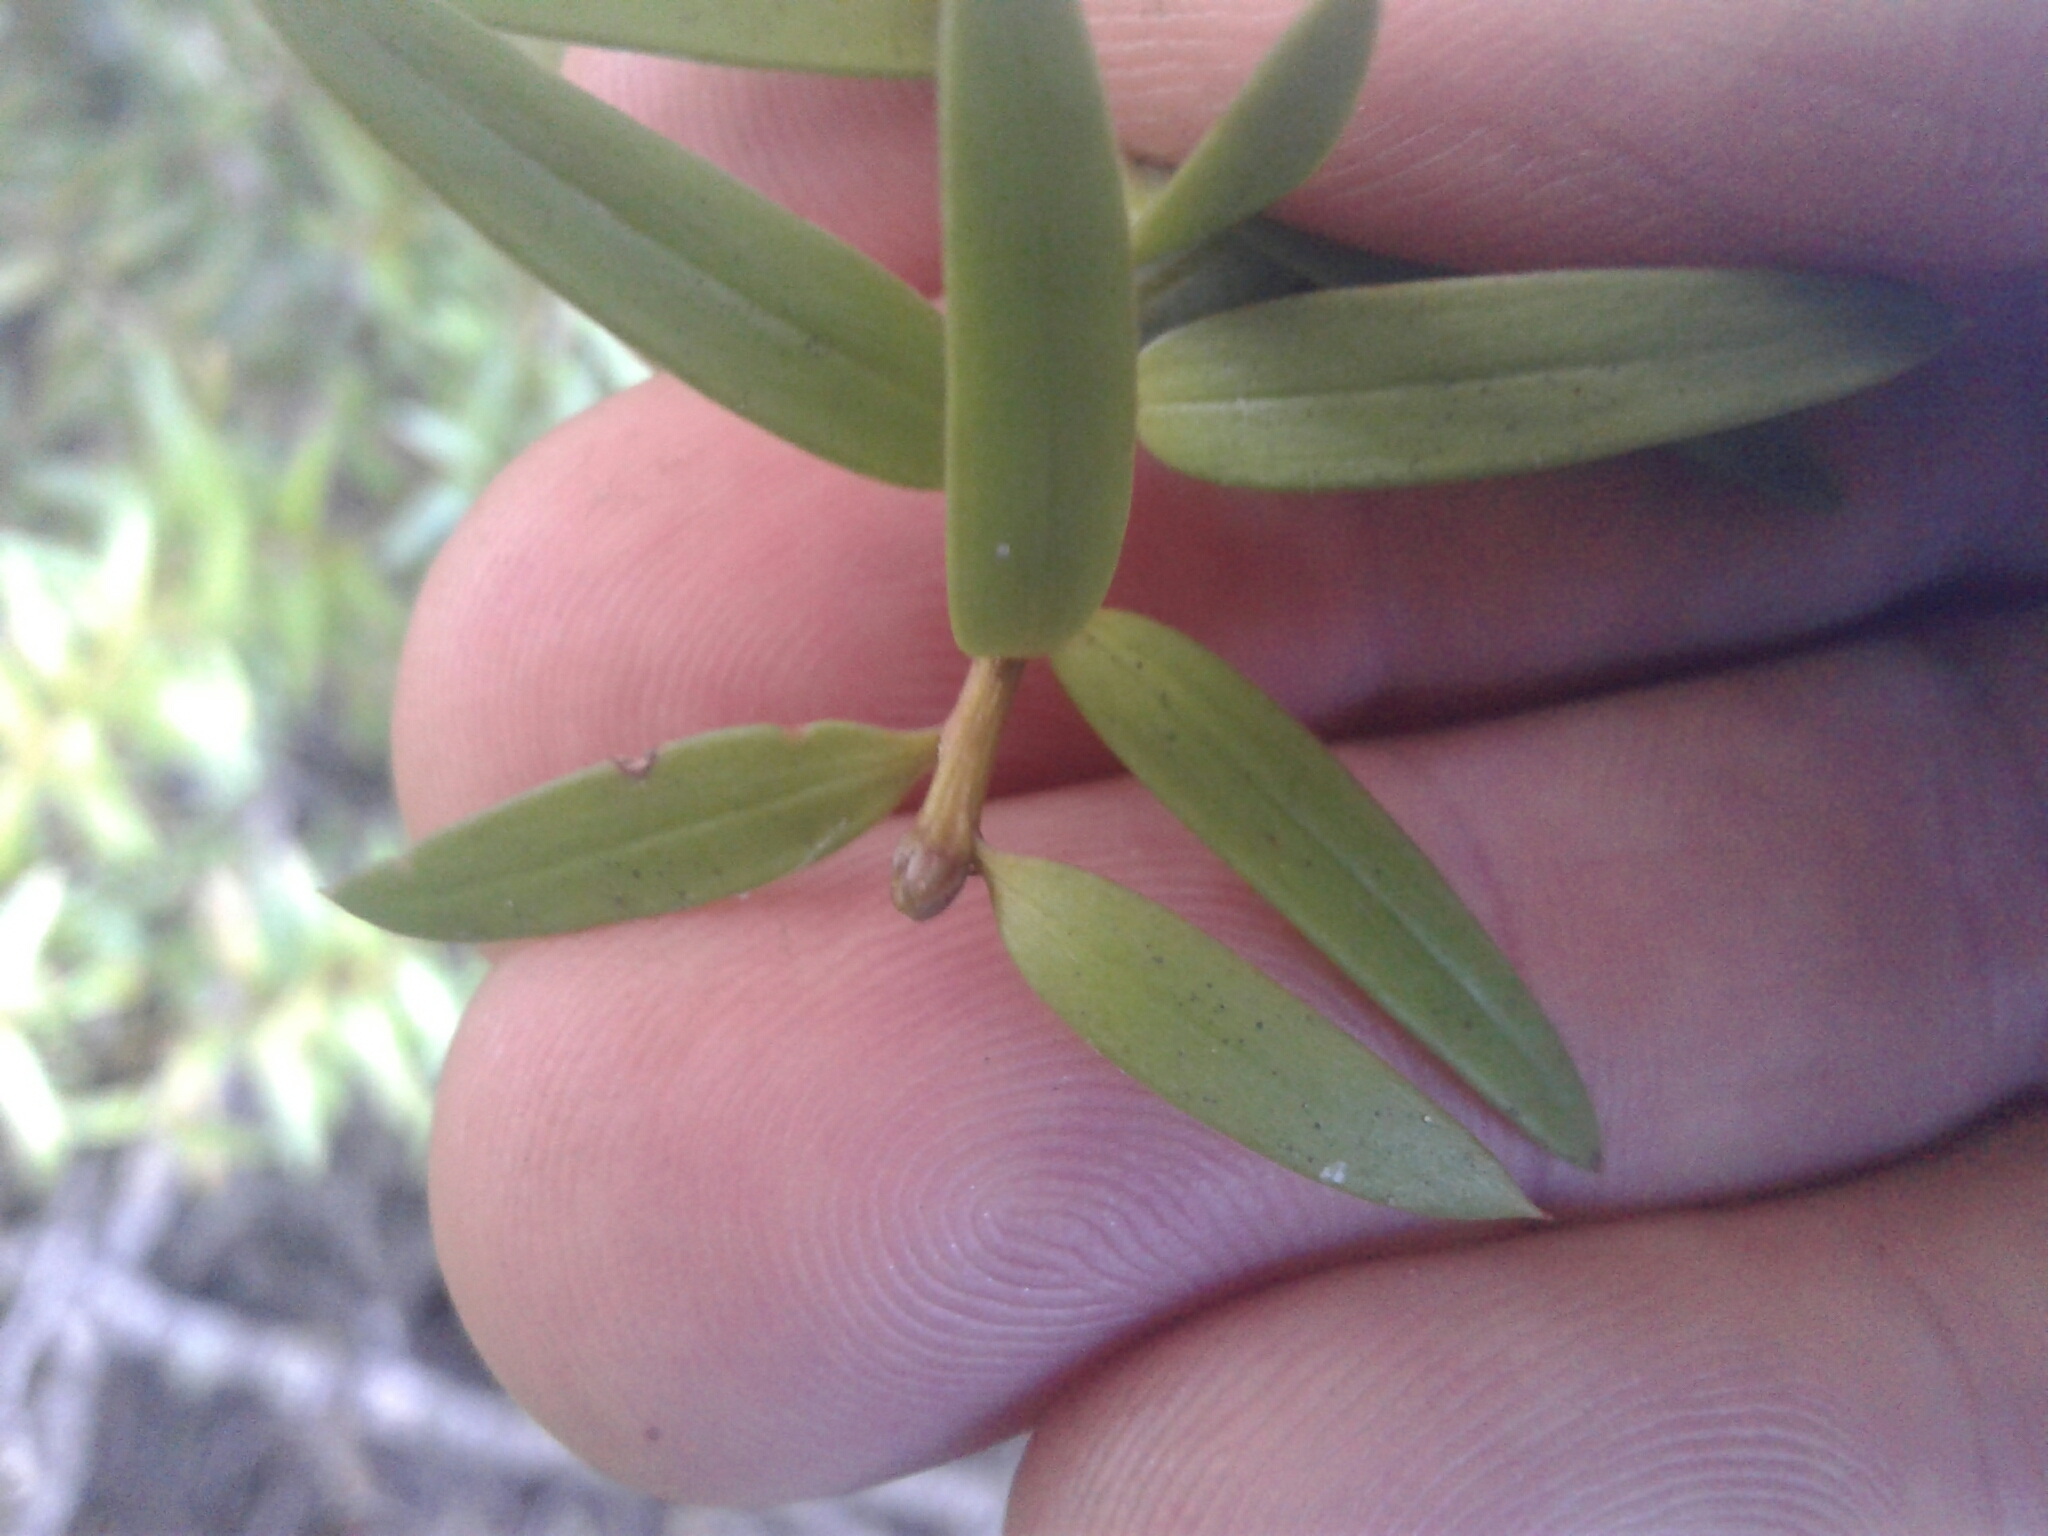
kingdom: Plantae
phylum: Tracheophyta
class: Pinopsida
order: Pinales
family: Podocarpaceae
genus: Podocarpus
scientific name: Podocarpus laetus
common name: Hall's totara
